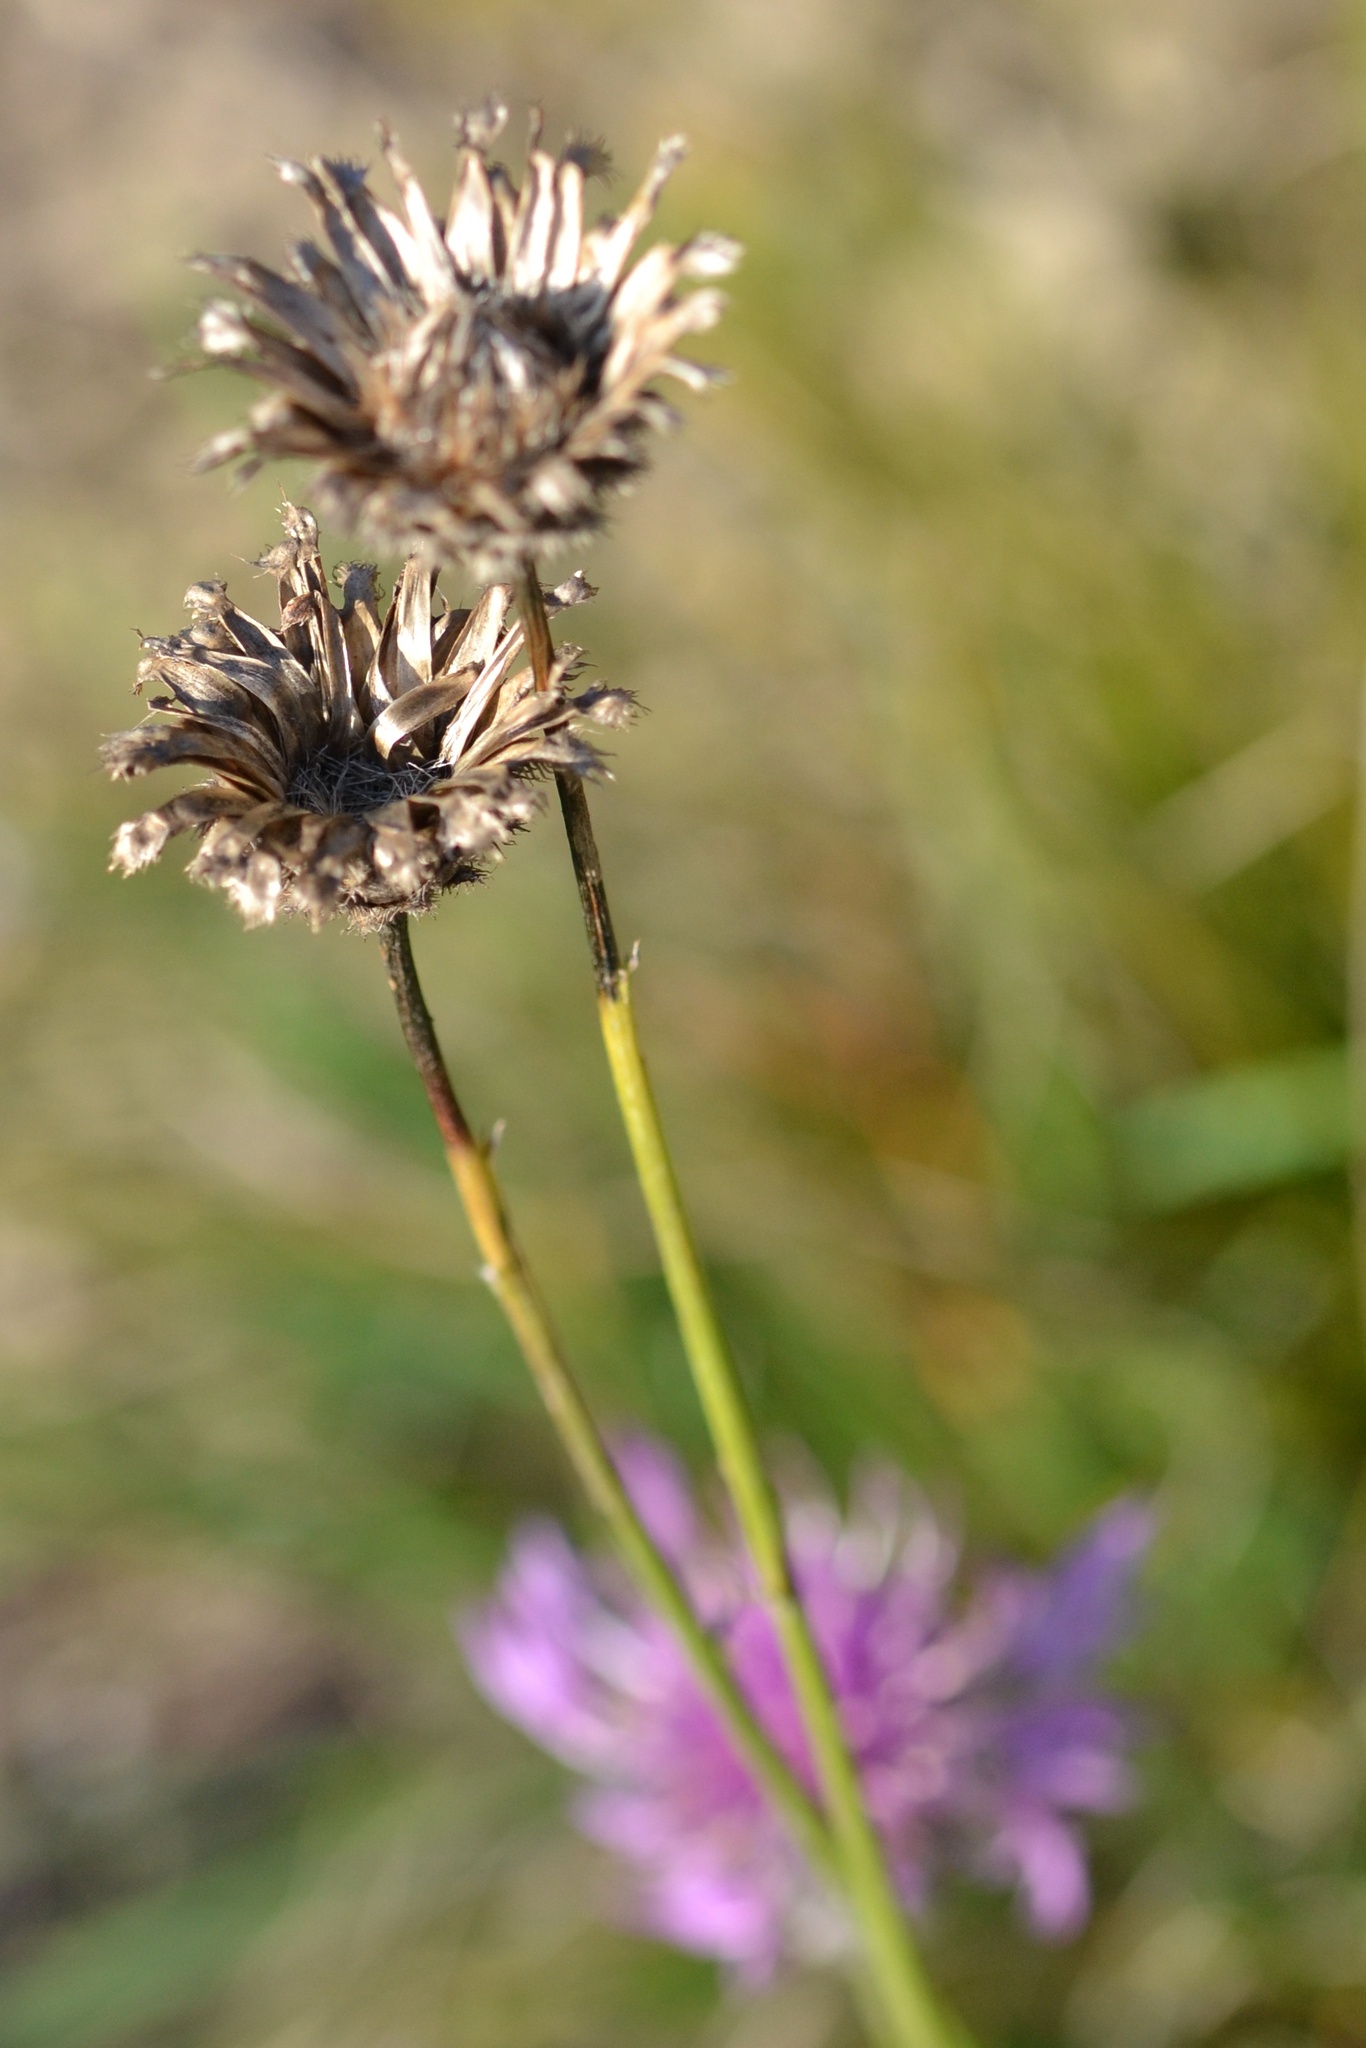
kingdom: Plantae
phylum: Tracheophyta
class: Magnoliopsida
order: Asterales
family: Asteraceae
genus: Centaurea
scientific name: Centaurea scabiosa
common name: Greater knapweed
